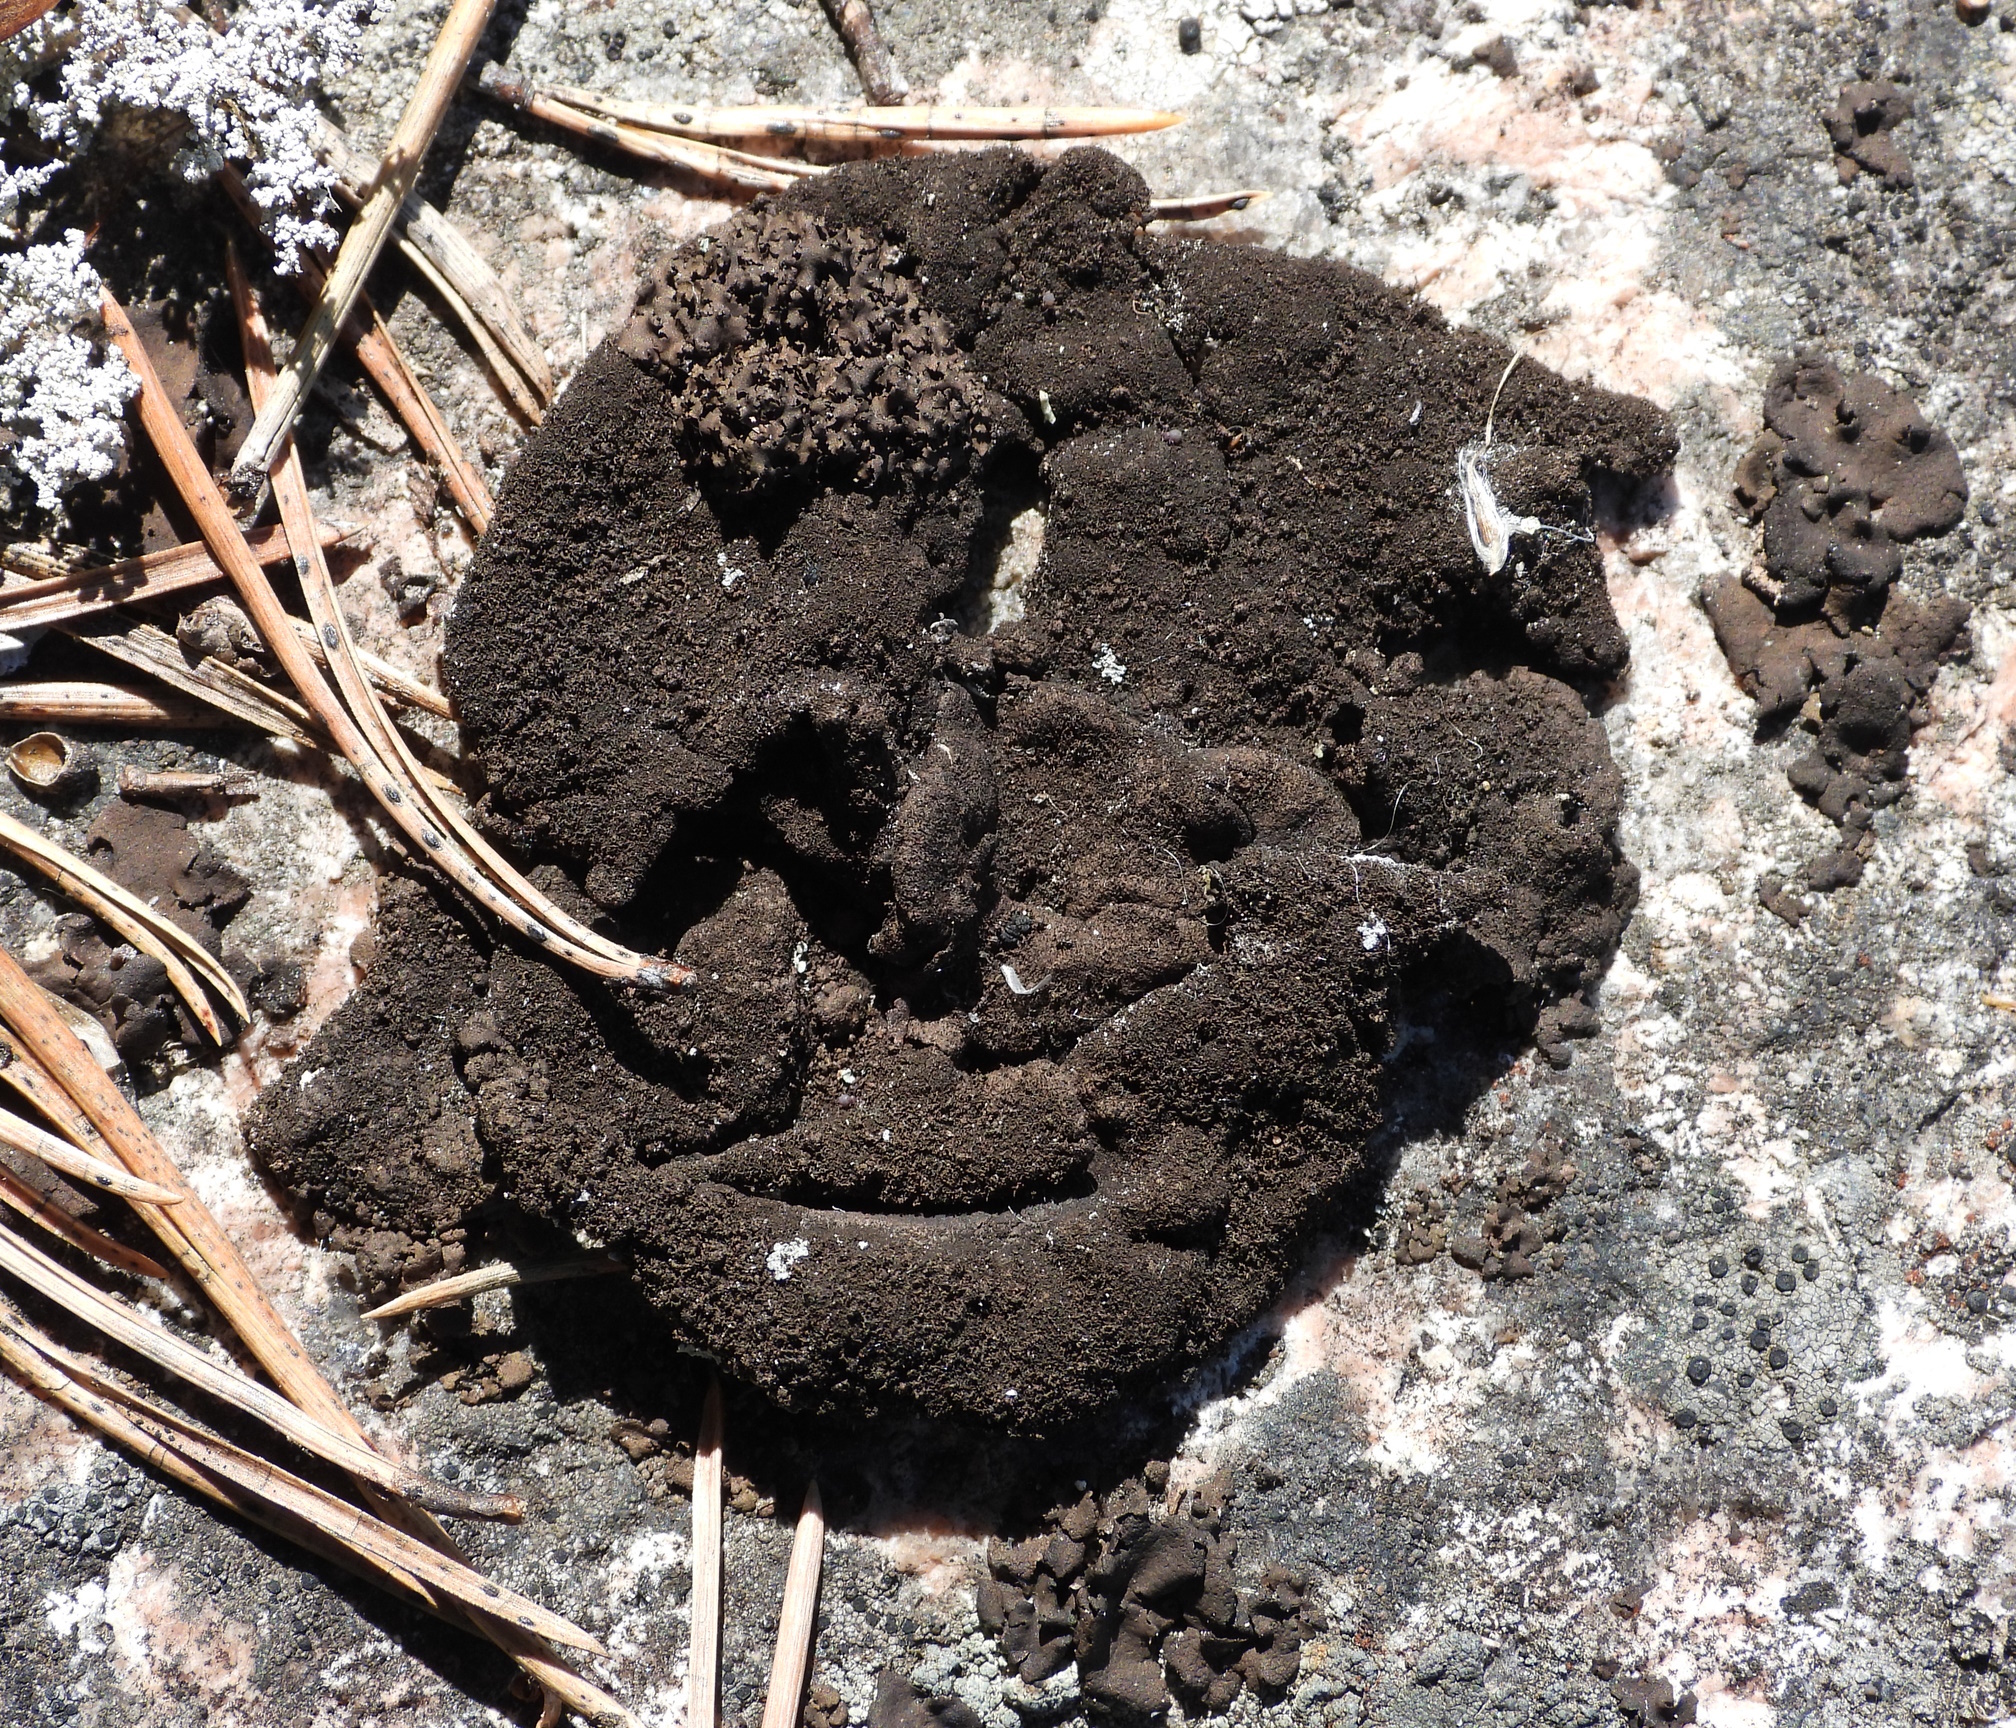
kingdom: Fungi
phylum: Ascomycota
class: Lecanoromycetes
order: Umbilicariales
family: Umbilicariaceae
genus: Umbilicaria
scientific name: Umbilicaria deusta
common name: Peppered rock tripe
